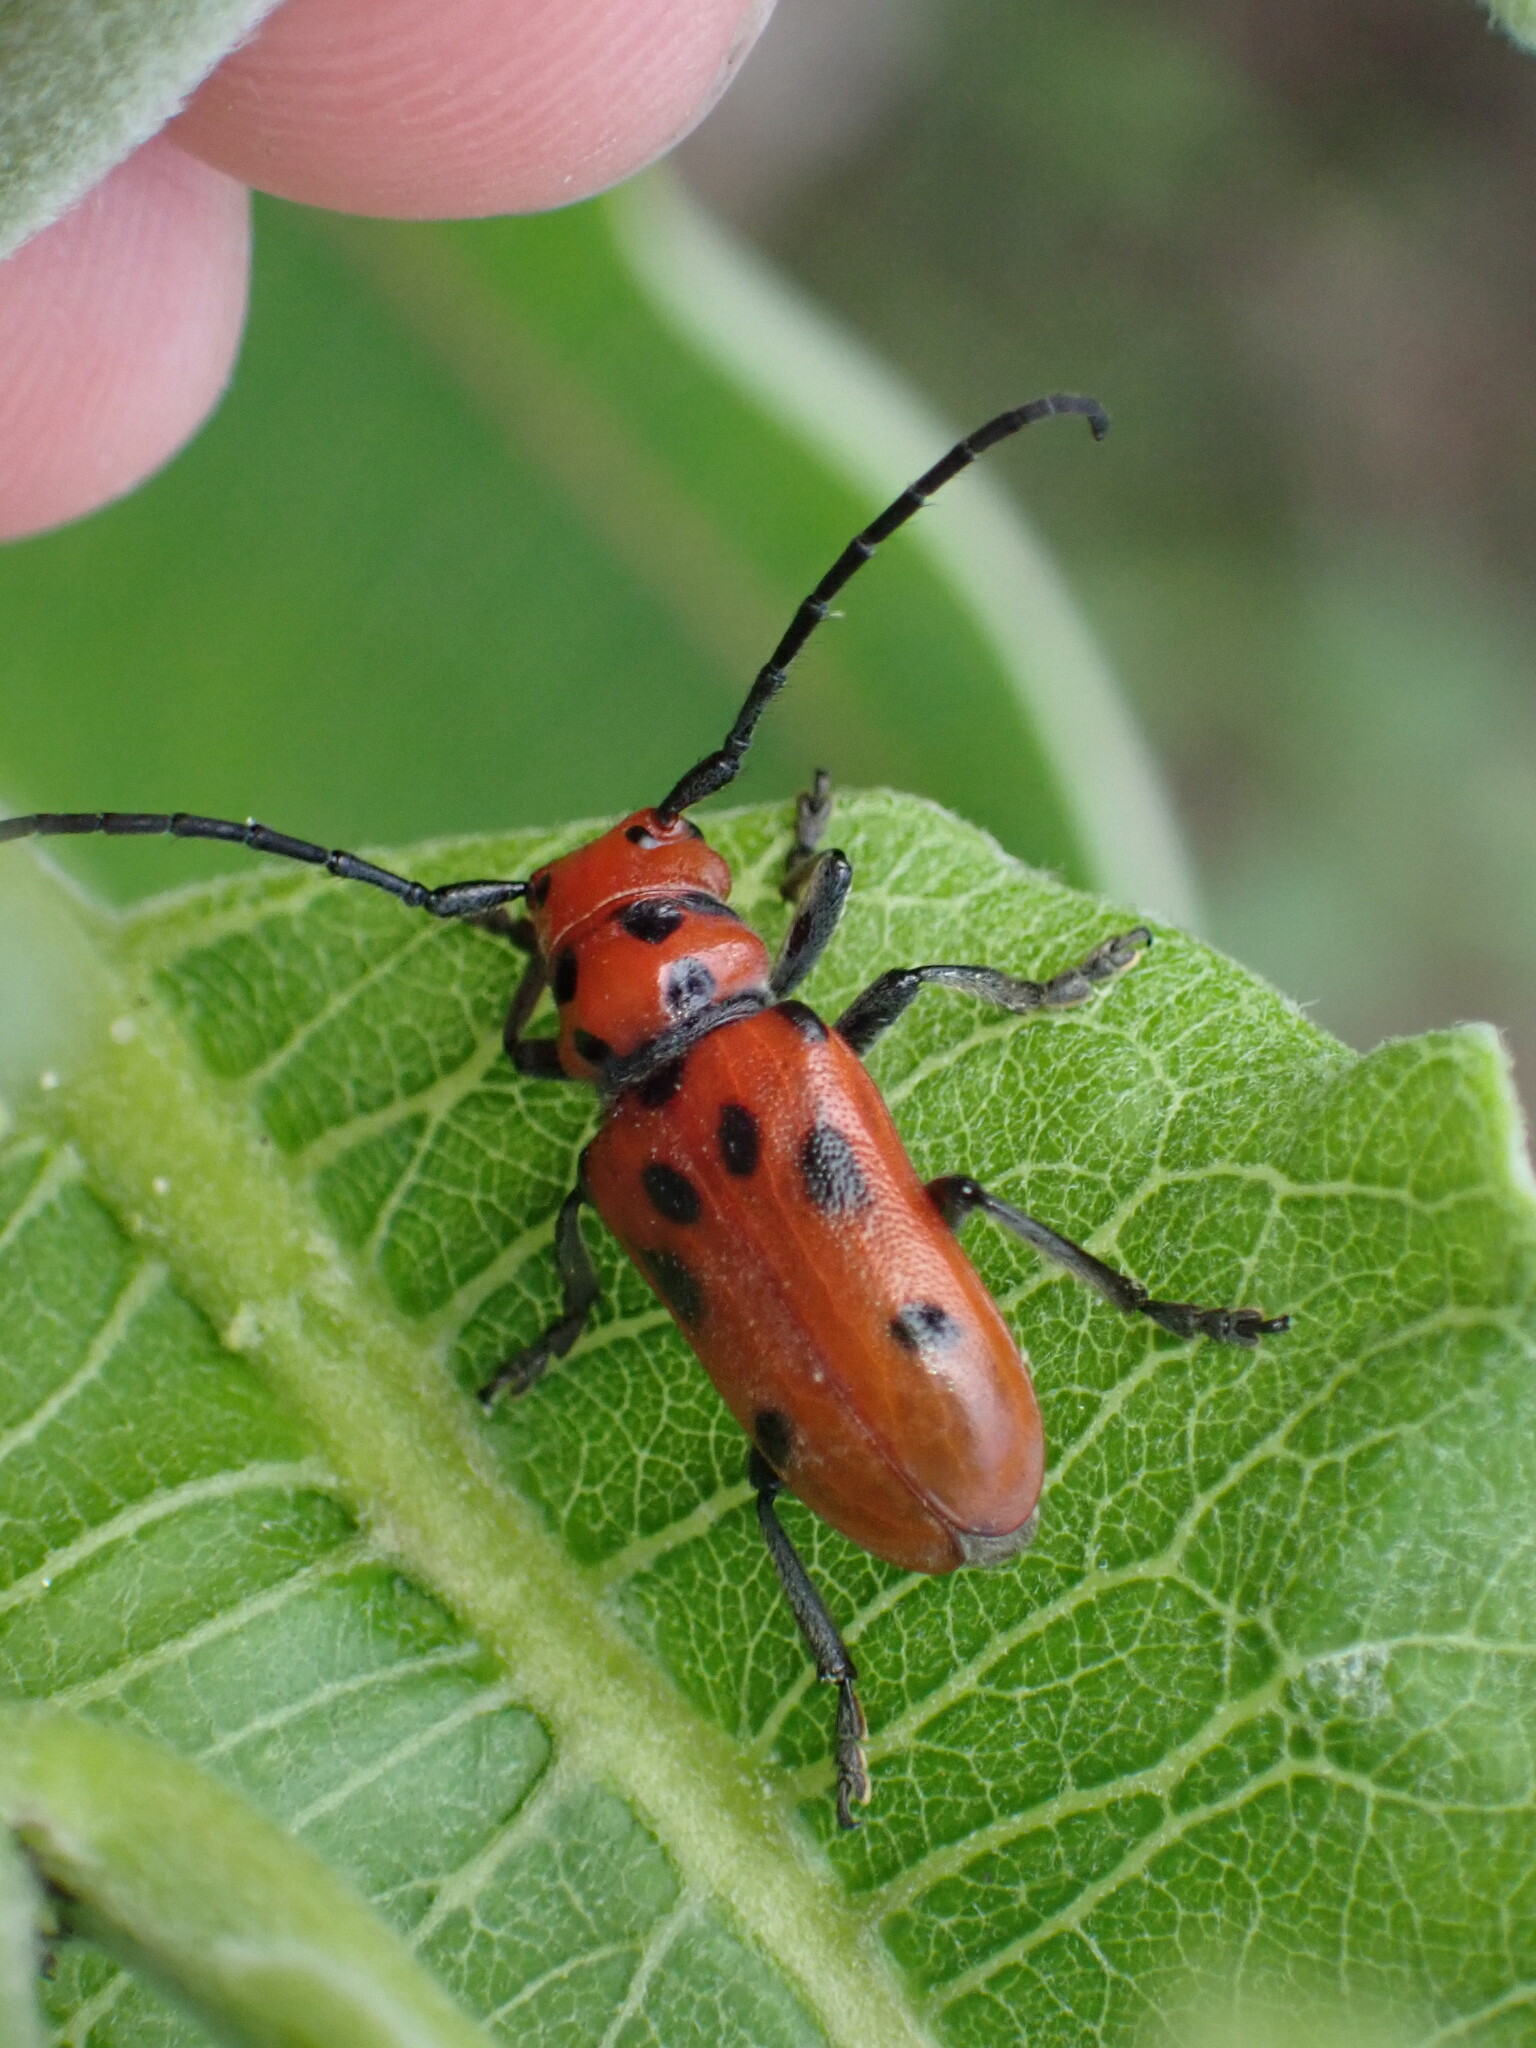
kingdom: Animalia
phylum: Arthropoda
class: Insecta
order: Coleoptera
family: Cerambycidae
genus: Tetraopes
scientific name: Tetraopes tetrophthalmus
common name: Red milkweed beetle
